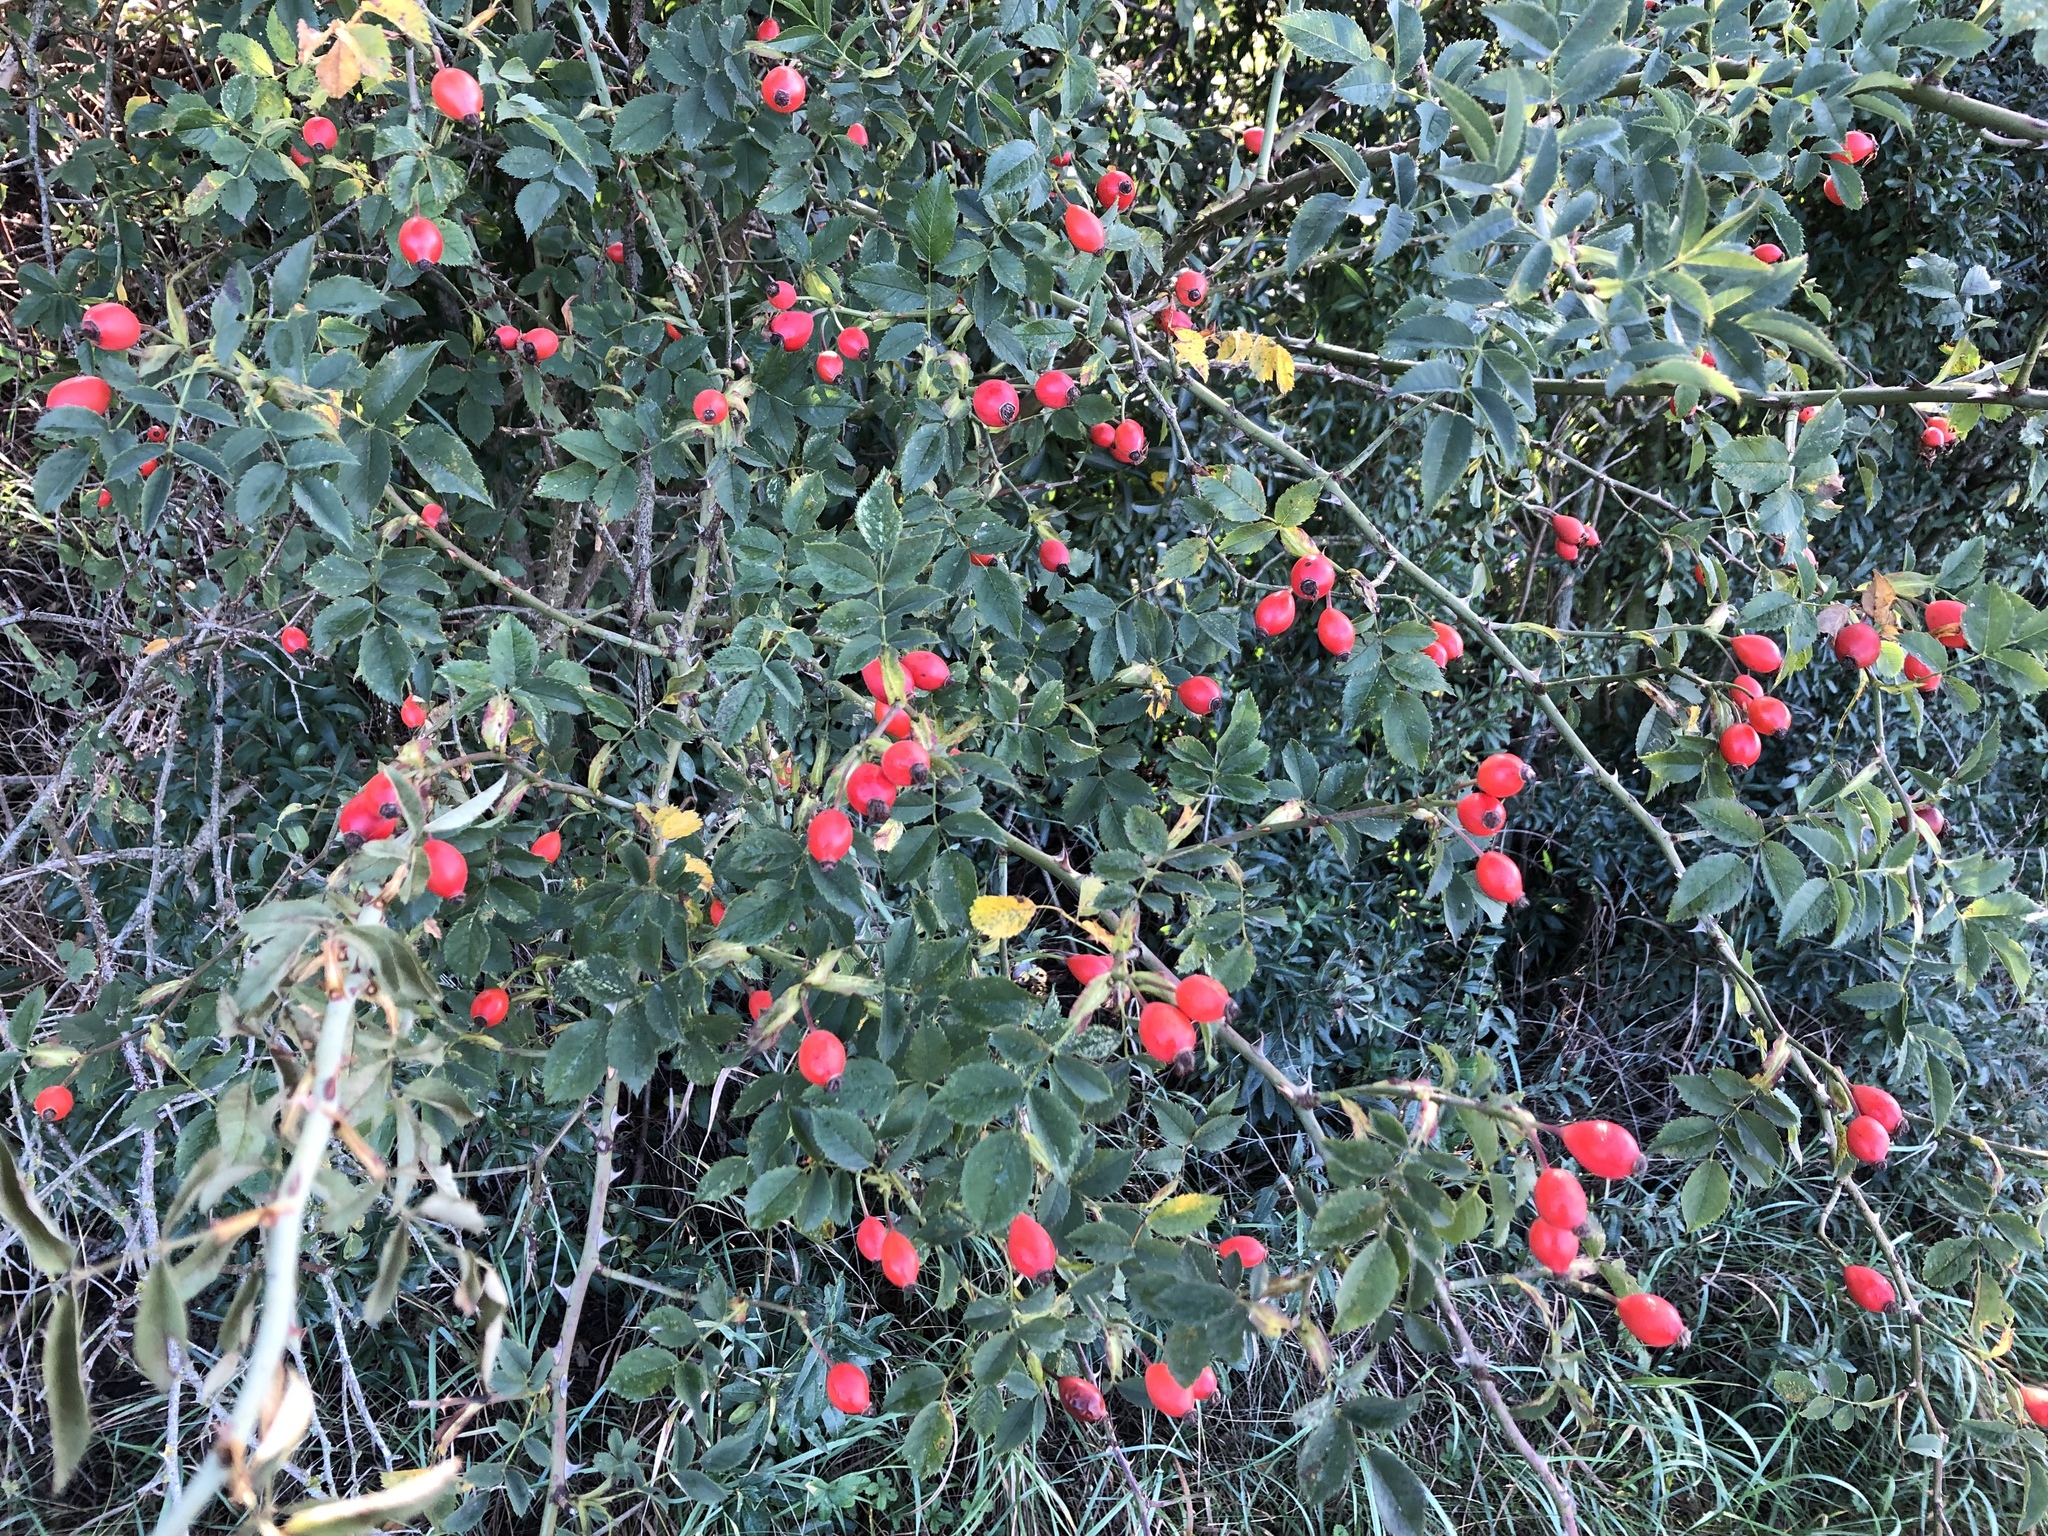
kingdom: Plantae
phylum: Tracheophyta
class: Magnoliopsida
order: Rosales
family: Rosaceae
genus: Rosa
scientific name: Rosa canina
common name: Dog rose
